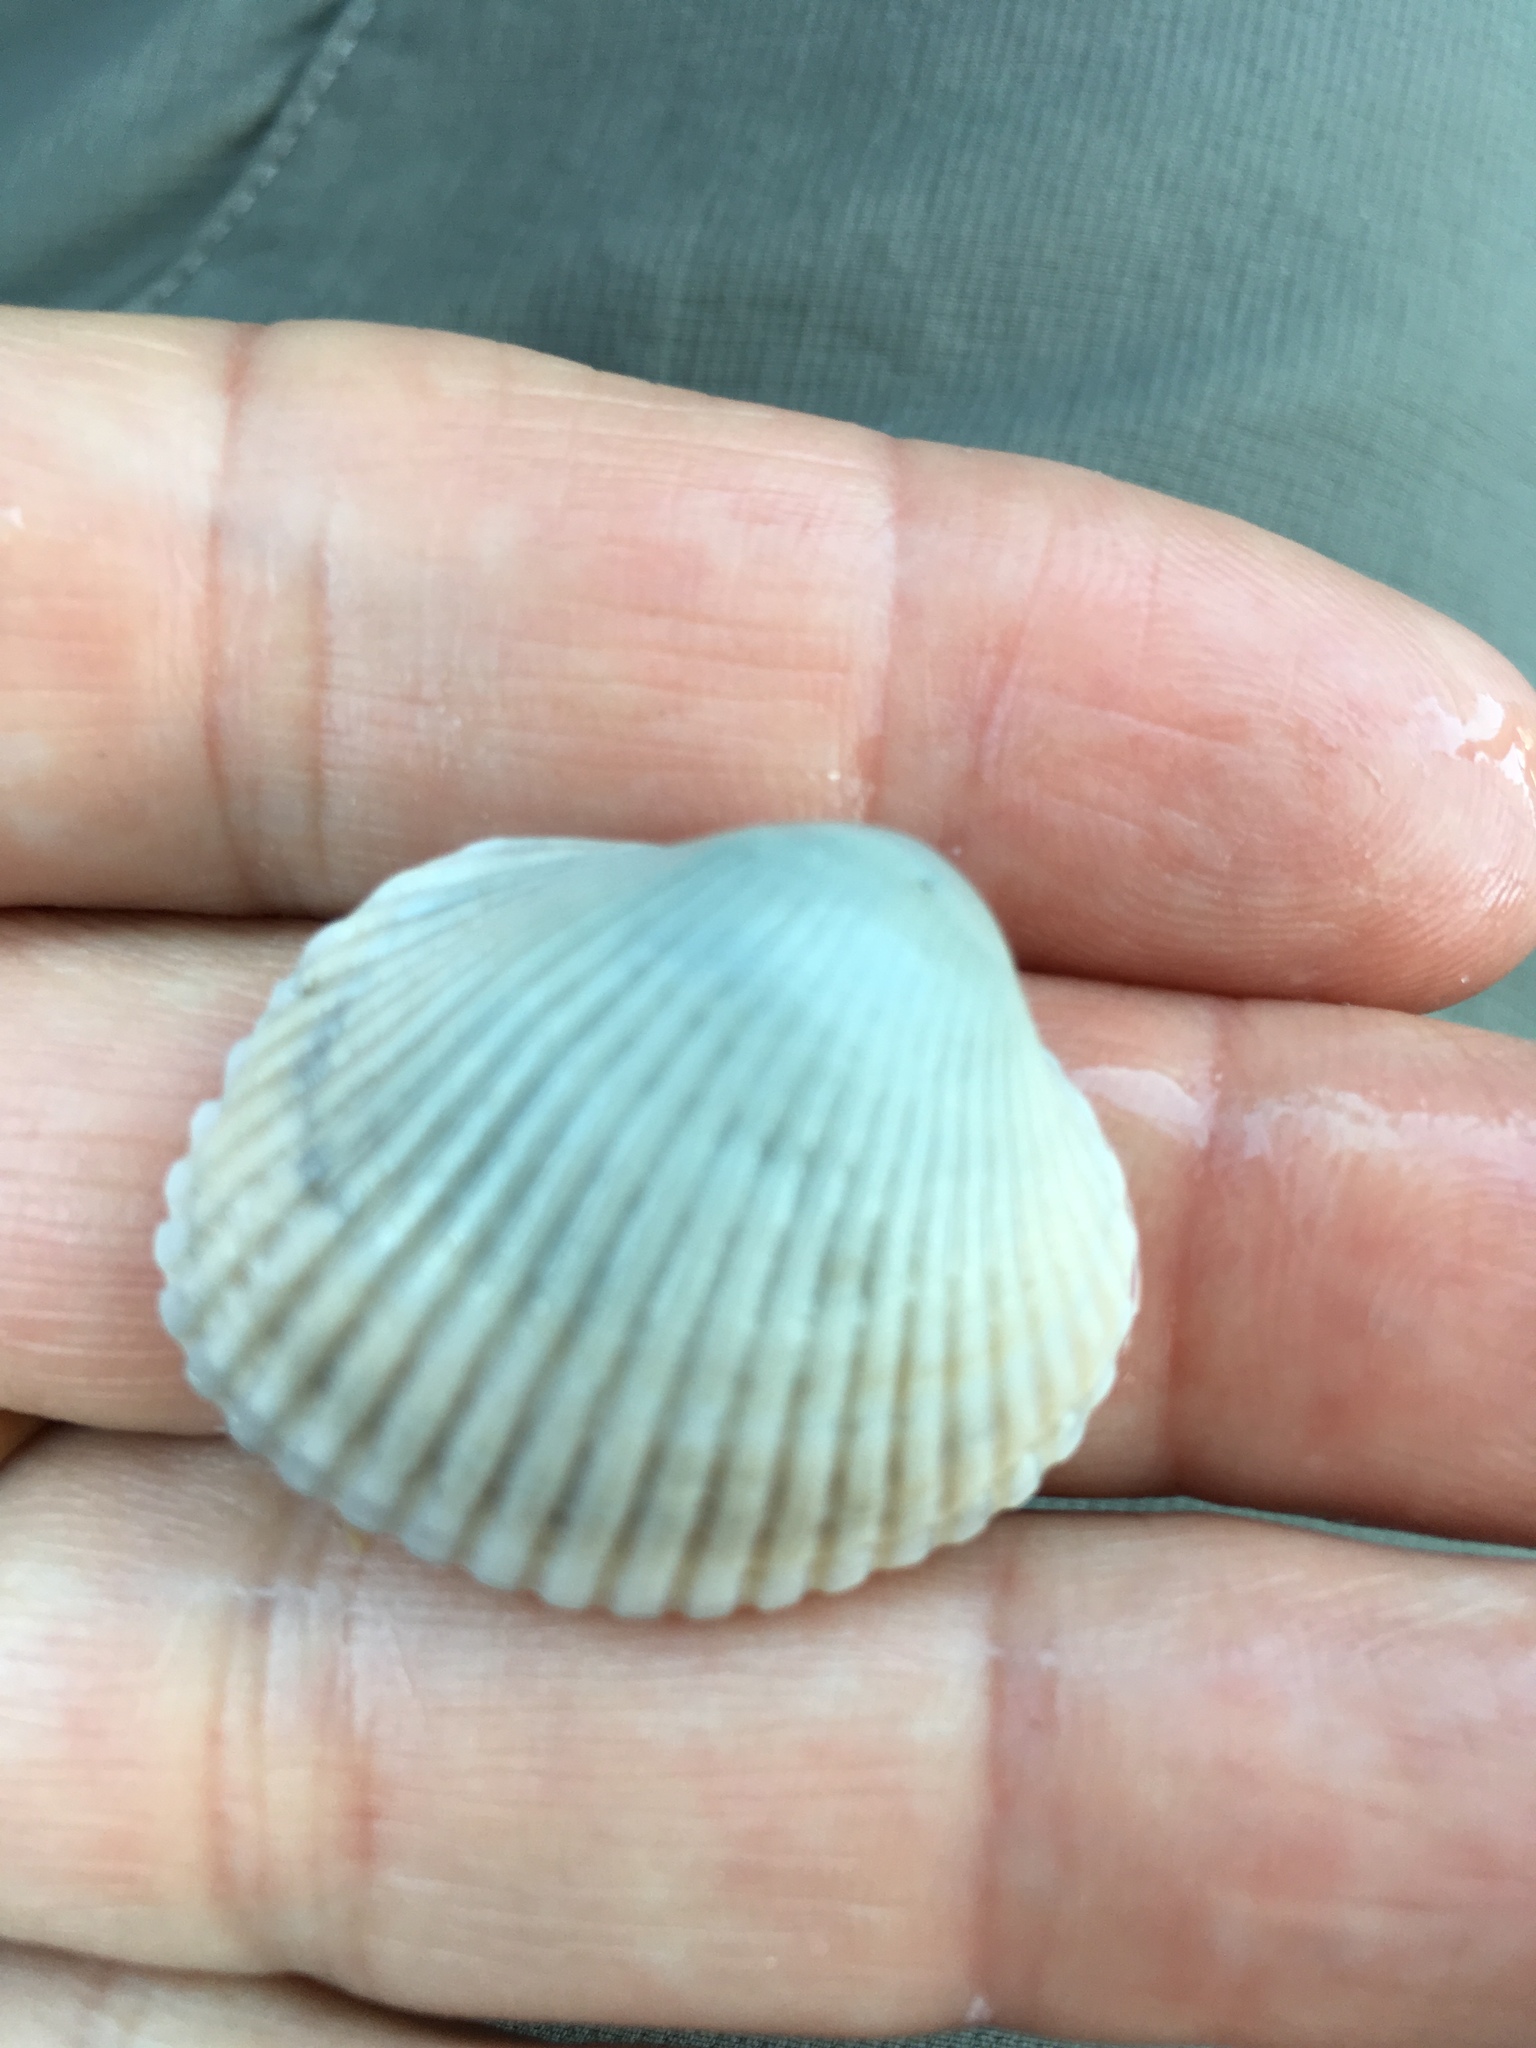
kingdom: Animalia
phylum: Mollusca
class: Bivalvia
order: Arcida
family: Arcidae
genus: Lunarca
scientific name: Lunarca ovalis
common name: Blood ark
